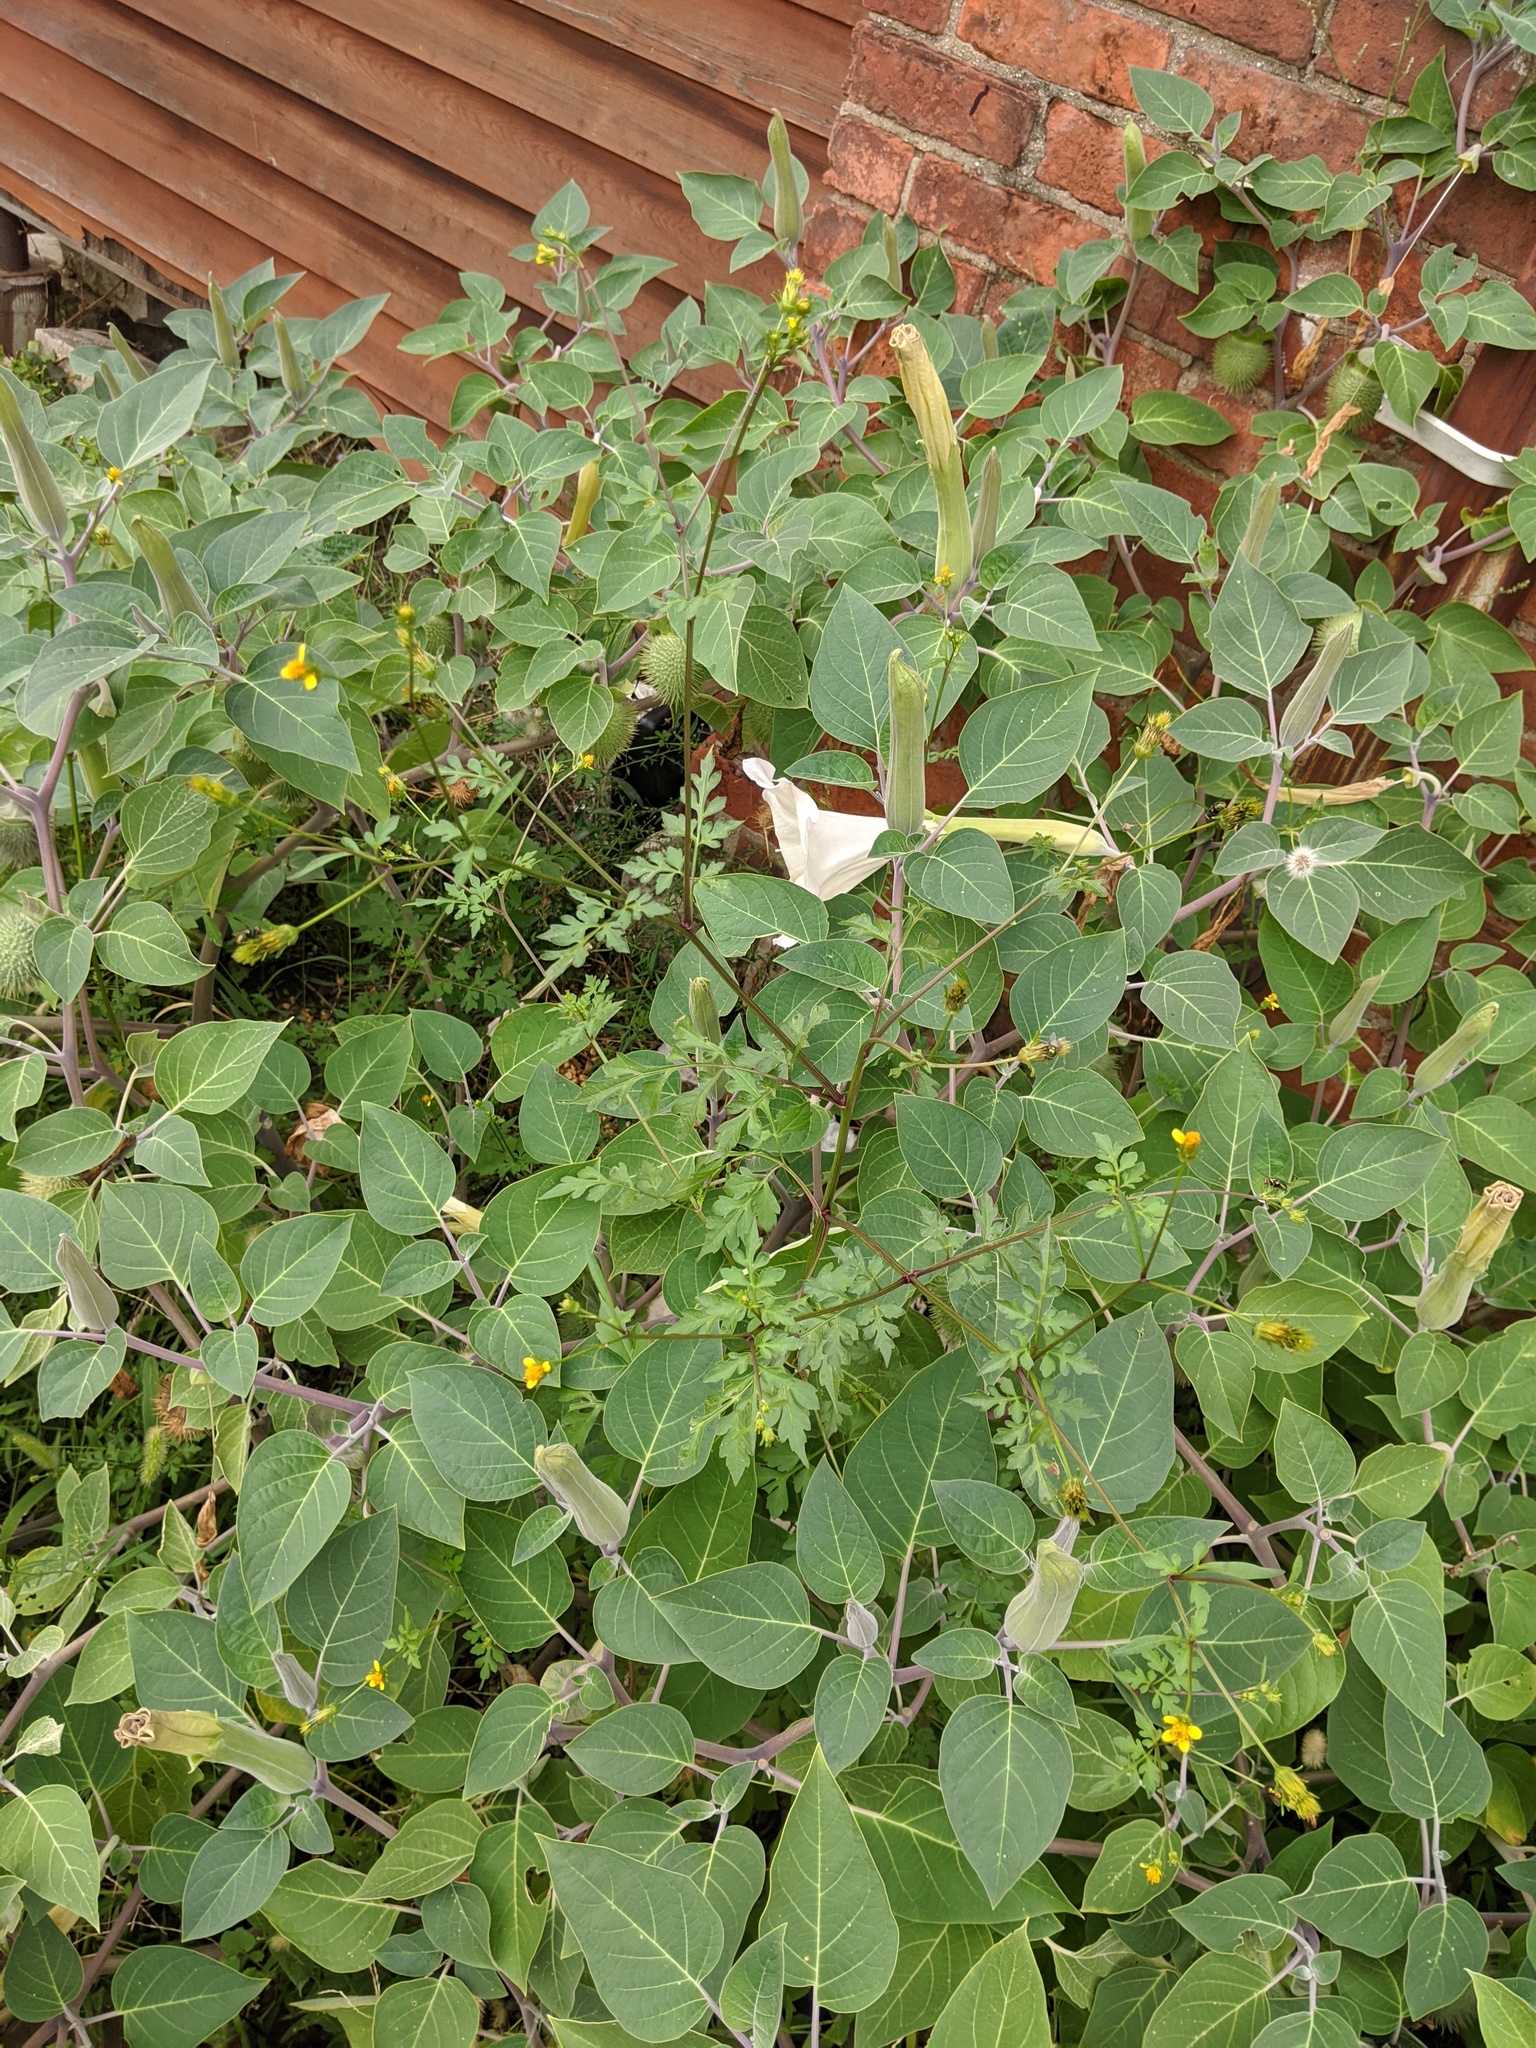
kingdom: Plantae
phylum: Tracheophyta
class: Magnoliopsida
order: Asterales
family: Asteraceae
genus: Bidens
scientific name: Bidens bipinnata
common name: Spanish-needles
